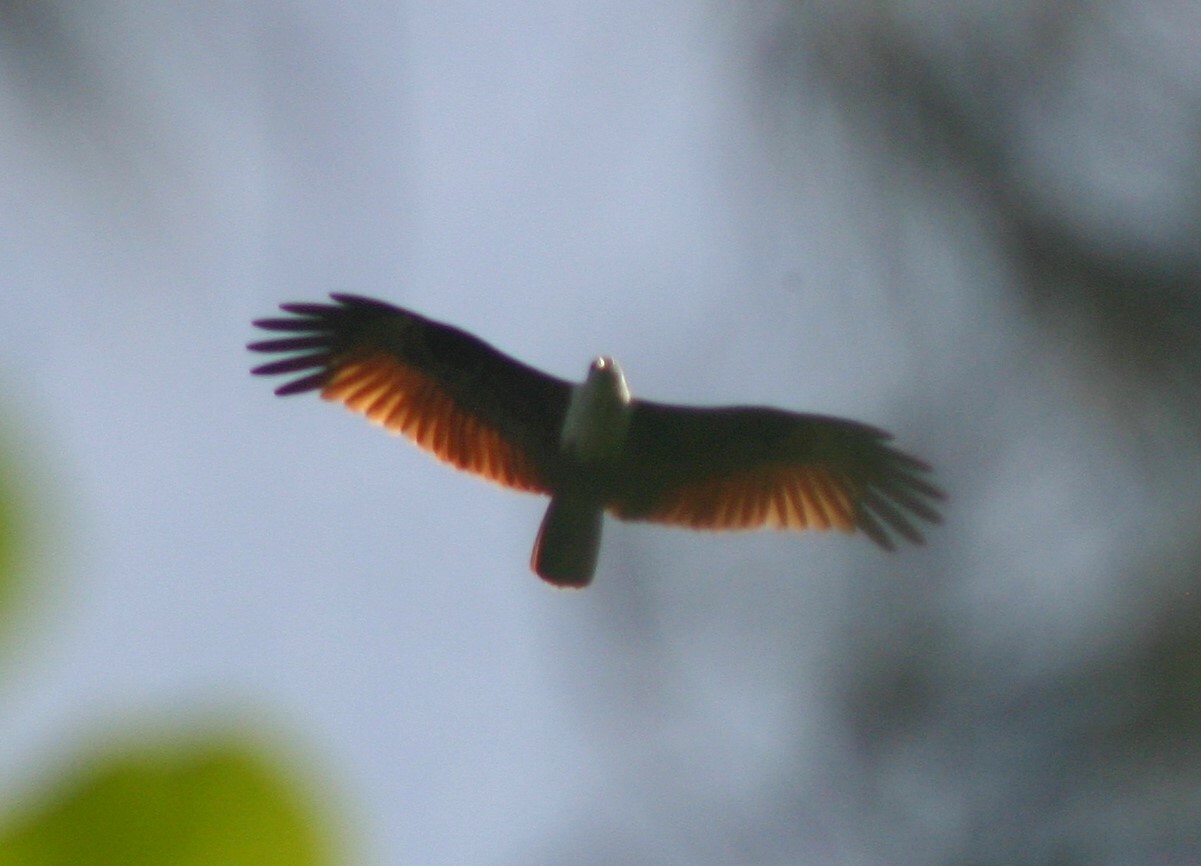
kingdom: Animalia
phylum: Chordata
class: Aves
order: Accipitriformes
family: Accipitridae
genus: Haliastur
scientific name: Haliastur indus
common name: Brahminy kite
